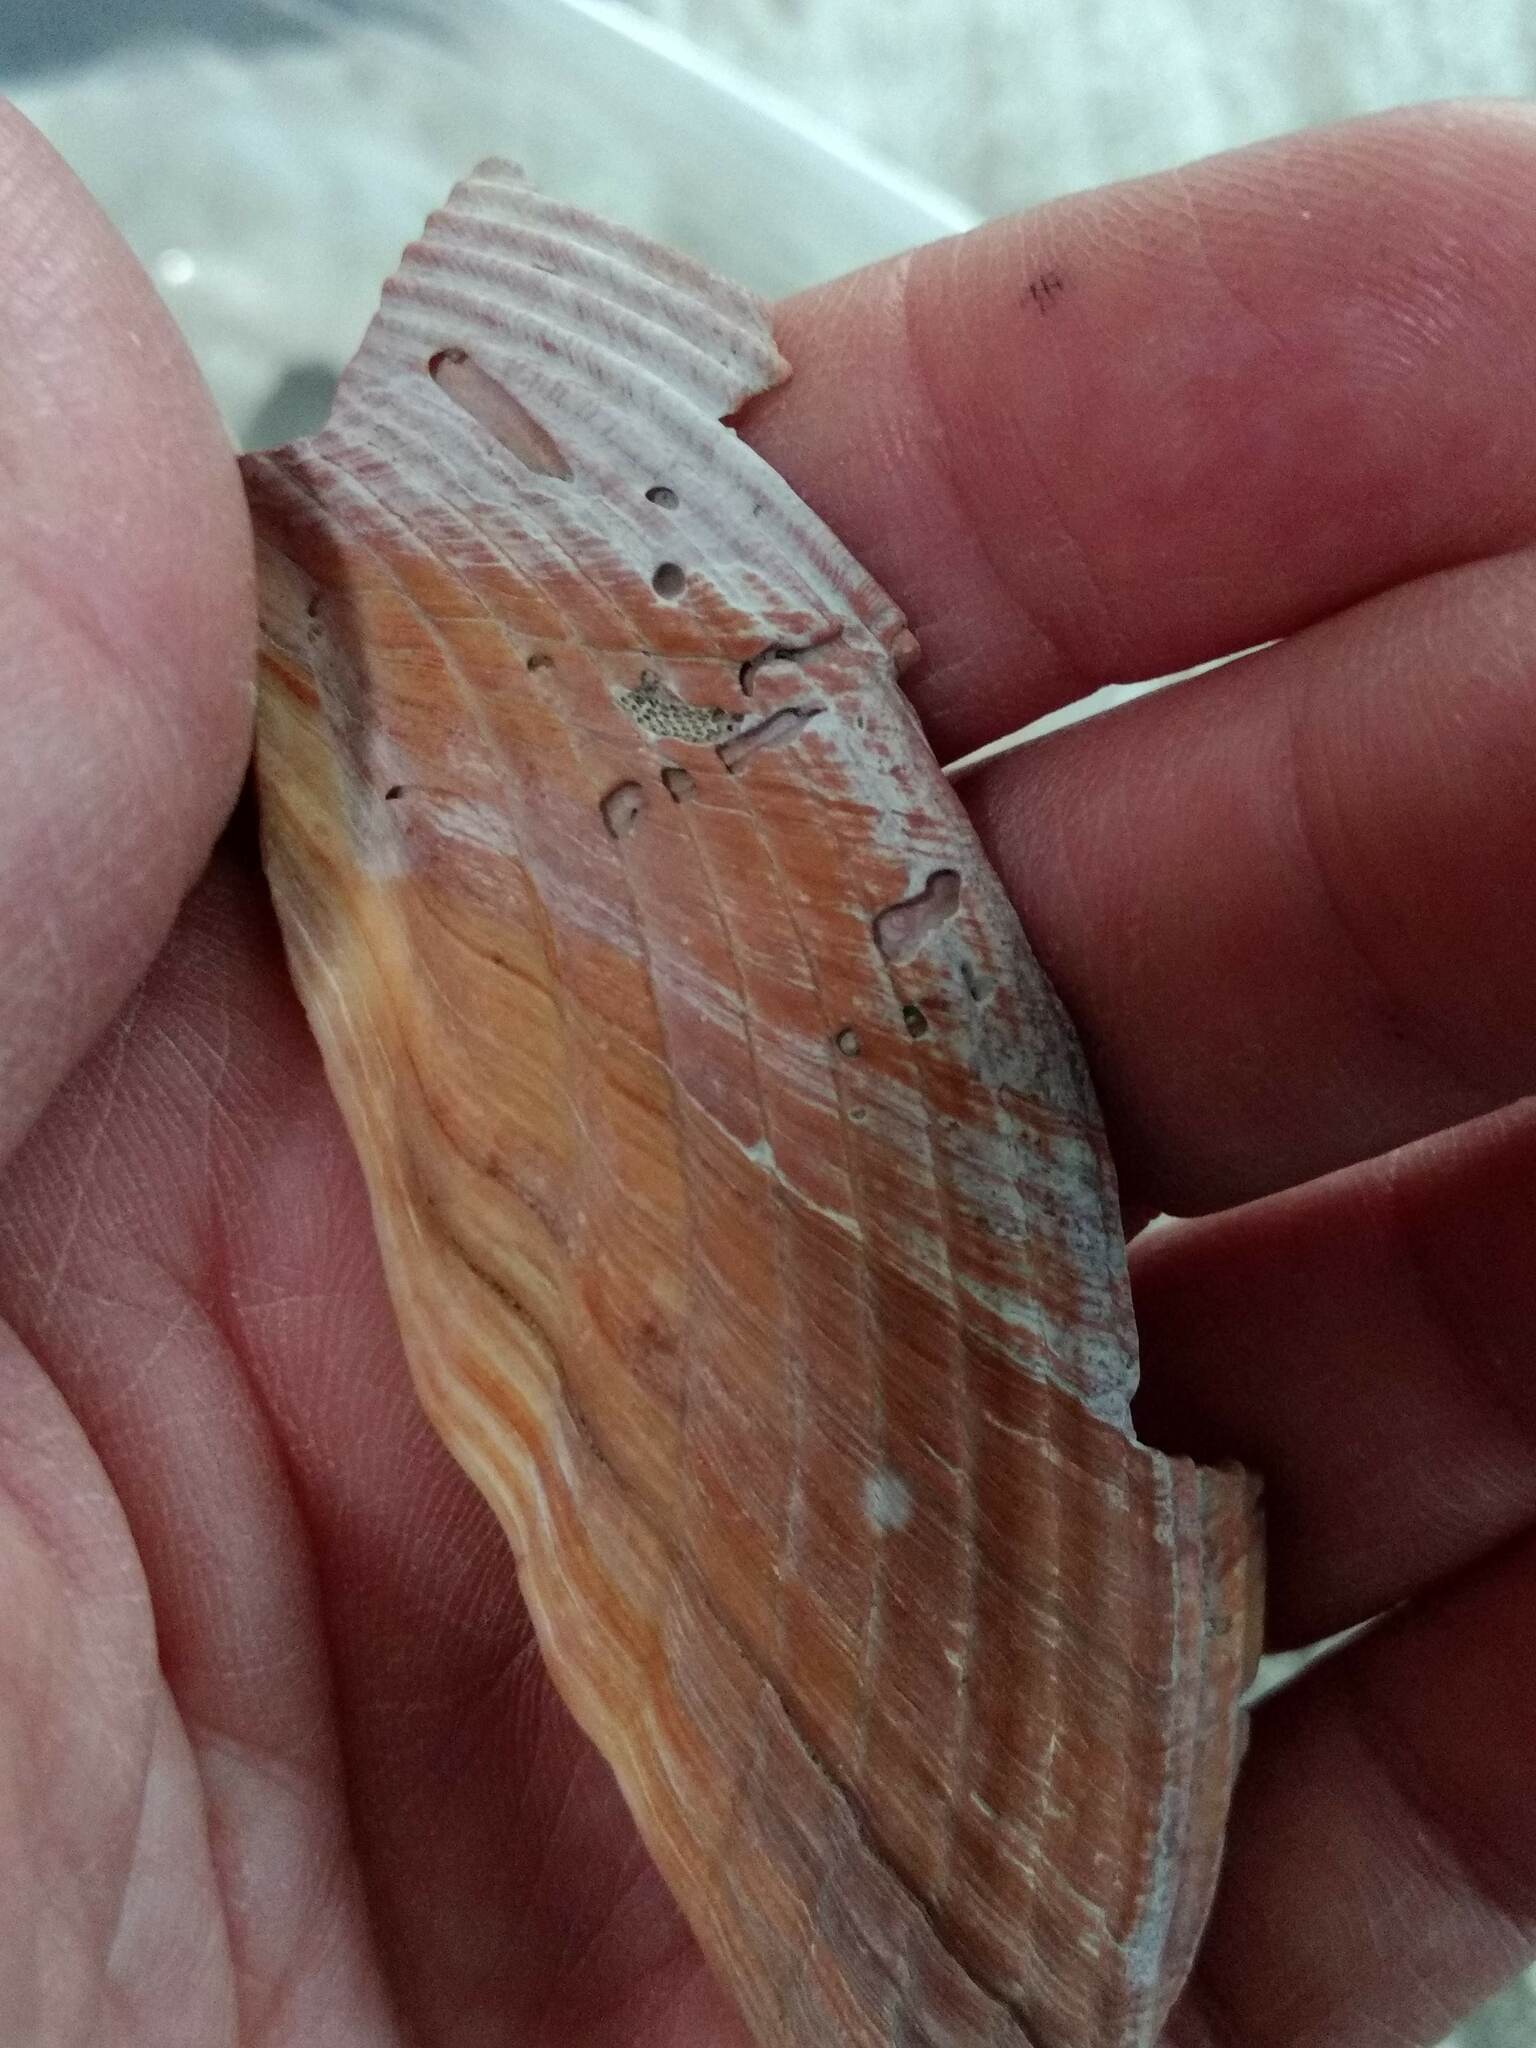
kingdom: Animalia
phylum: Mollusca
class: Bivalvia
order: Cardiida
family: Cardiidae
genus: Dinocardium
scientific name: Dinocardium robustum
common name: Atlantic giant cockle
